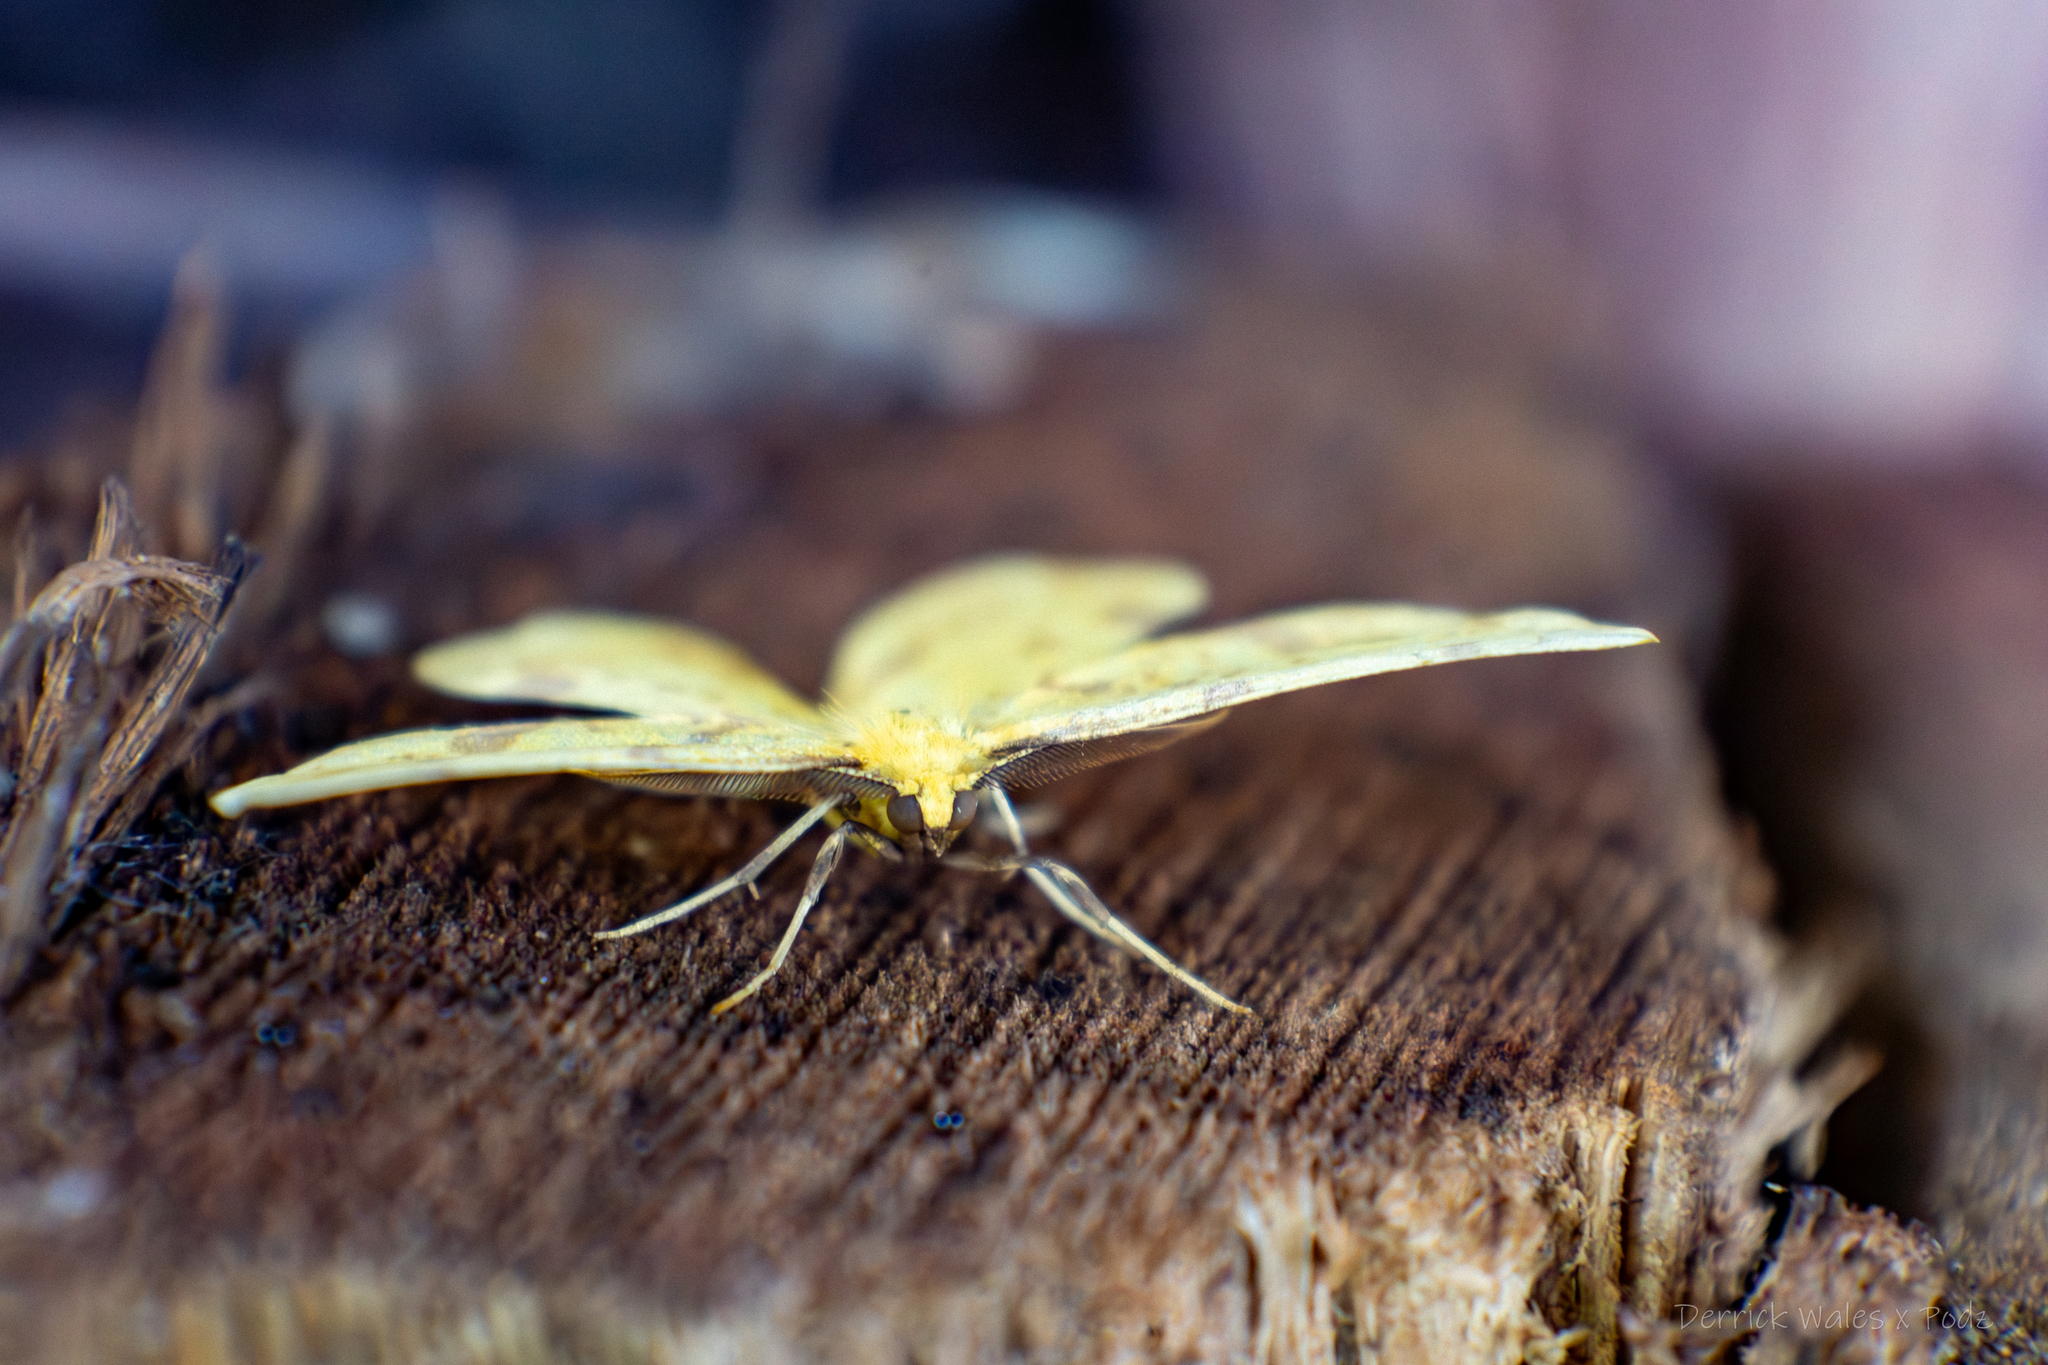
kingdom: Animalia
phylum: Arthropoda
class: Insecta
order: Lepidoptera
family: Geometridae
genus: Xanthotype
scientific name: Xanthotype
